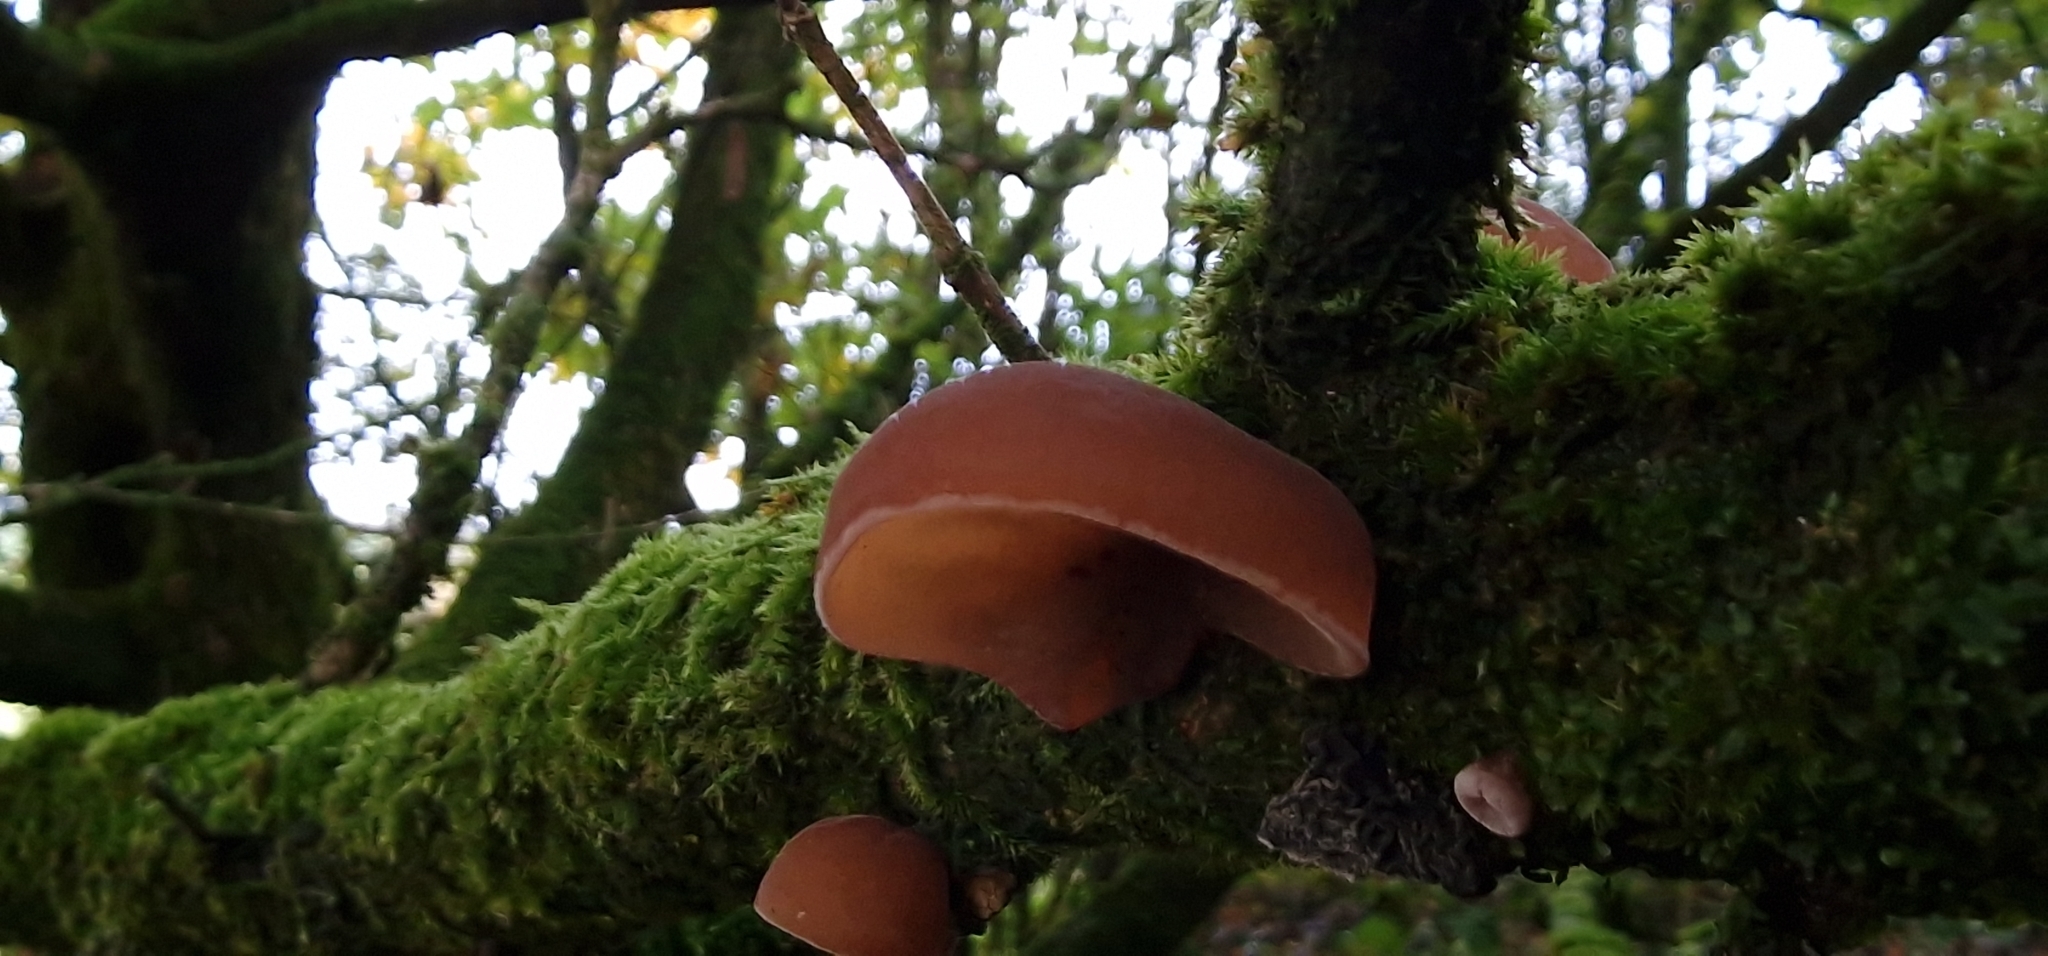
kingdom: Fungi
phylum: Basidiomycota
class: Agaricomycetes
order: Auriculariales
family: Auriculariaceae
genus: Auricularia
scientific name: Auricularia auricula-judae
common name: Jelly ear
